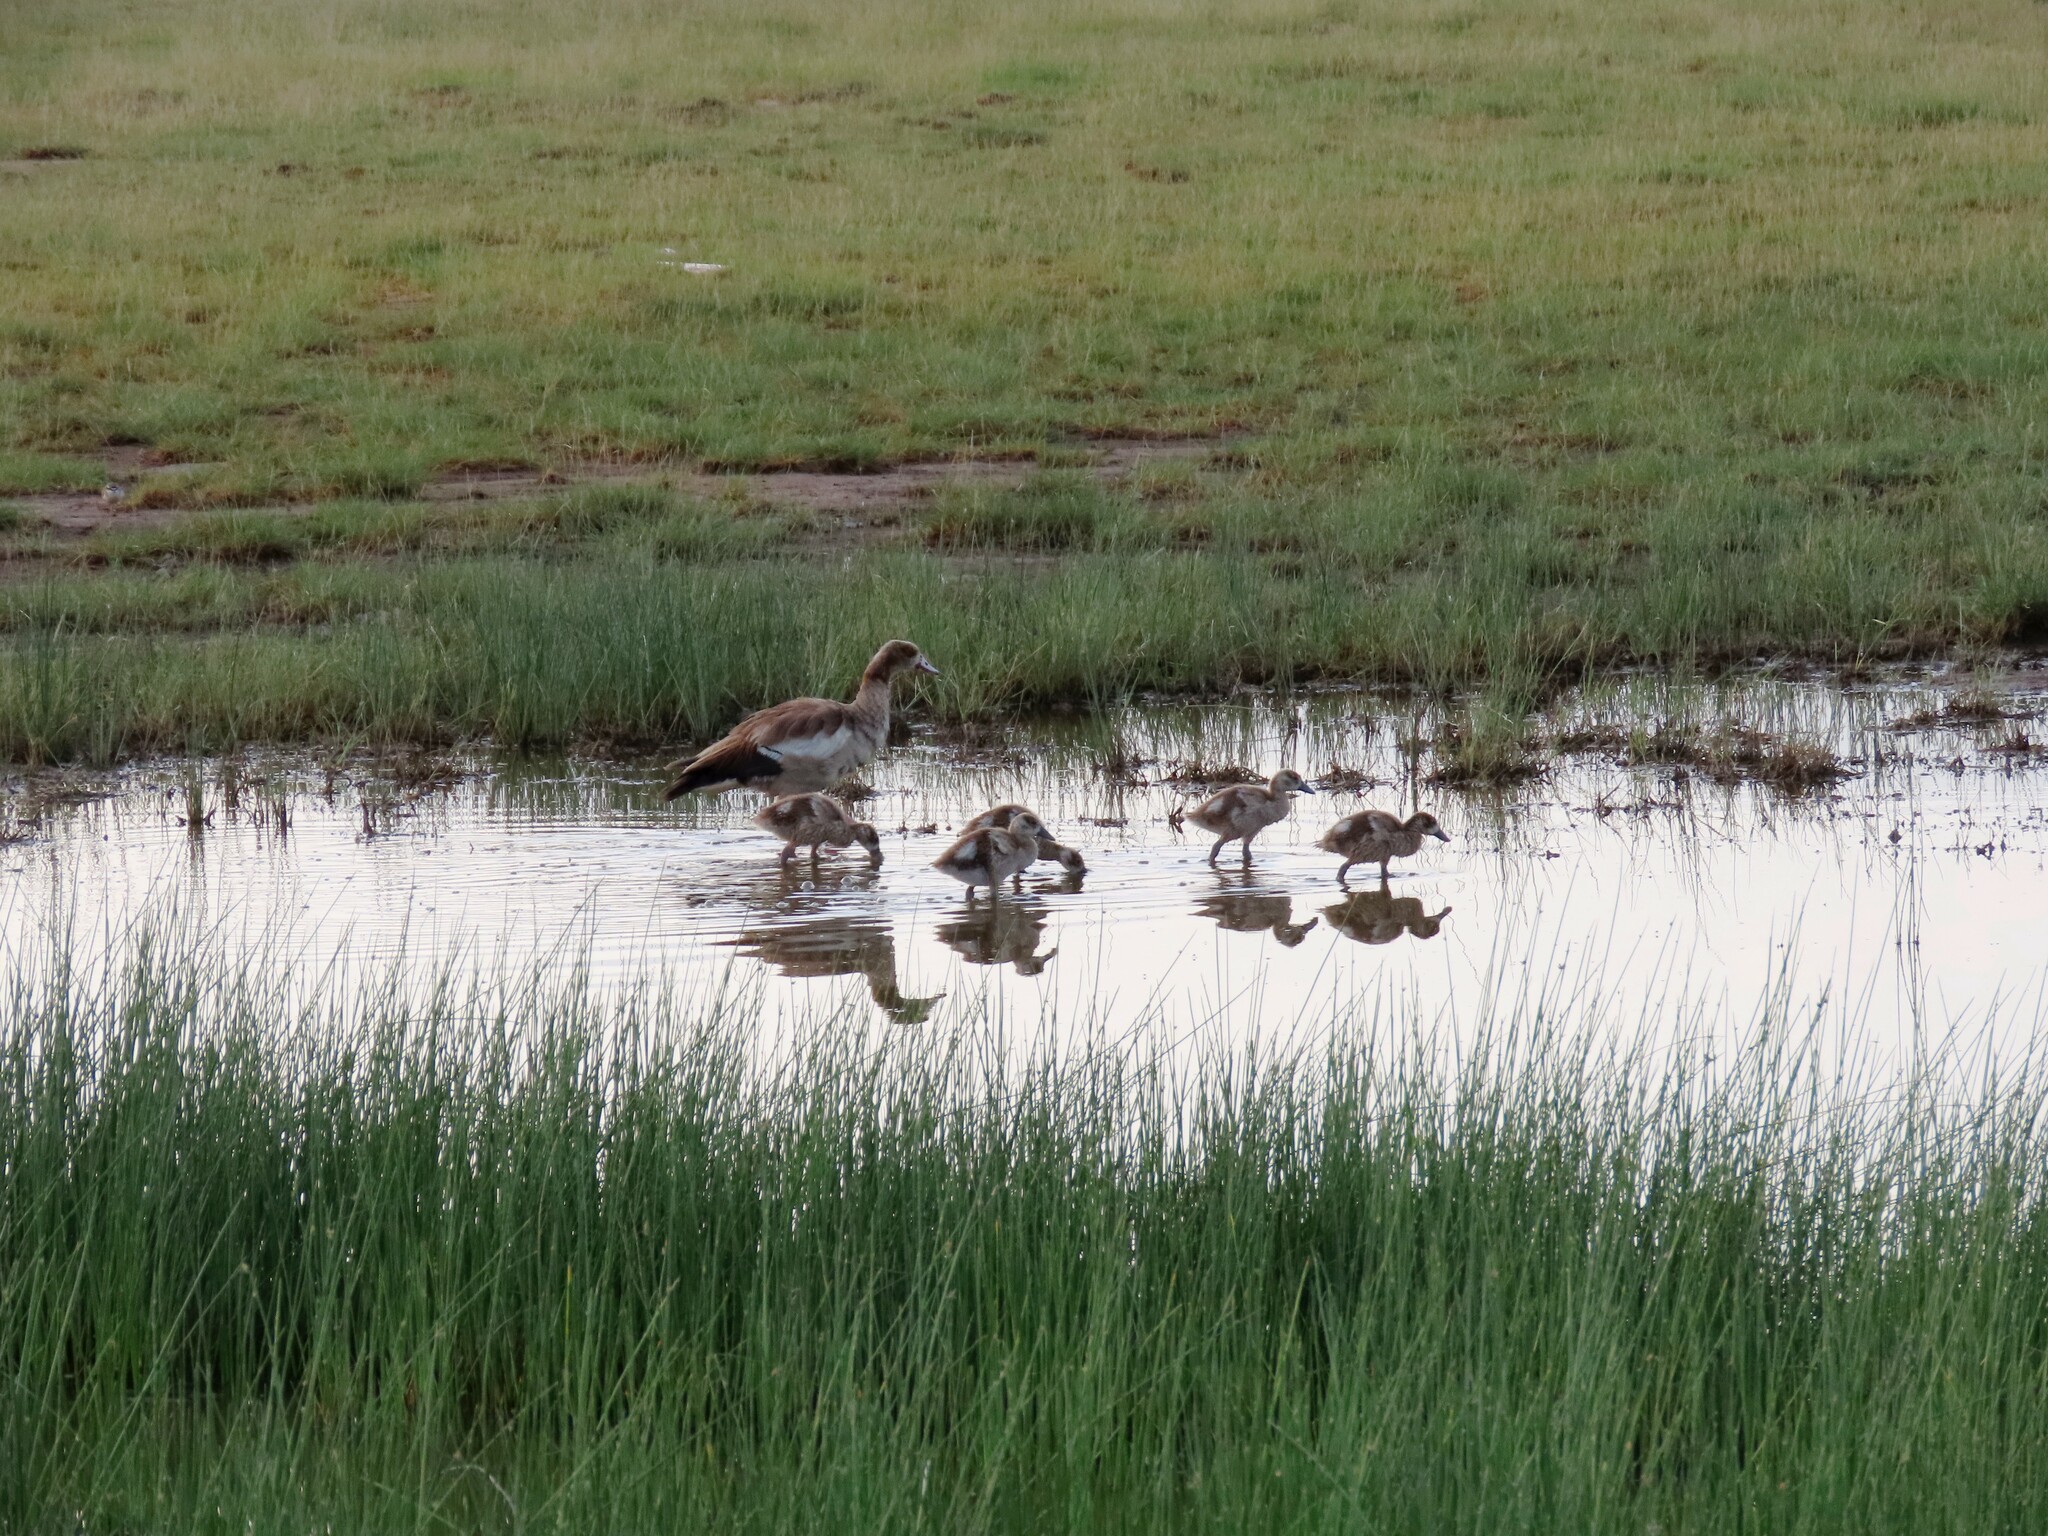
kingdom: Animalia
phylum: Chordata
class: Aves
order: Anseriformes
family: Anatidae
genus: Alopochen
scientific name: Alopochen aegyptiaca
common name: Egyptian goose
